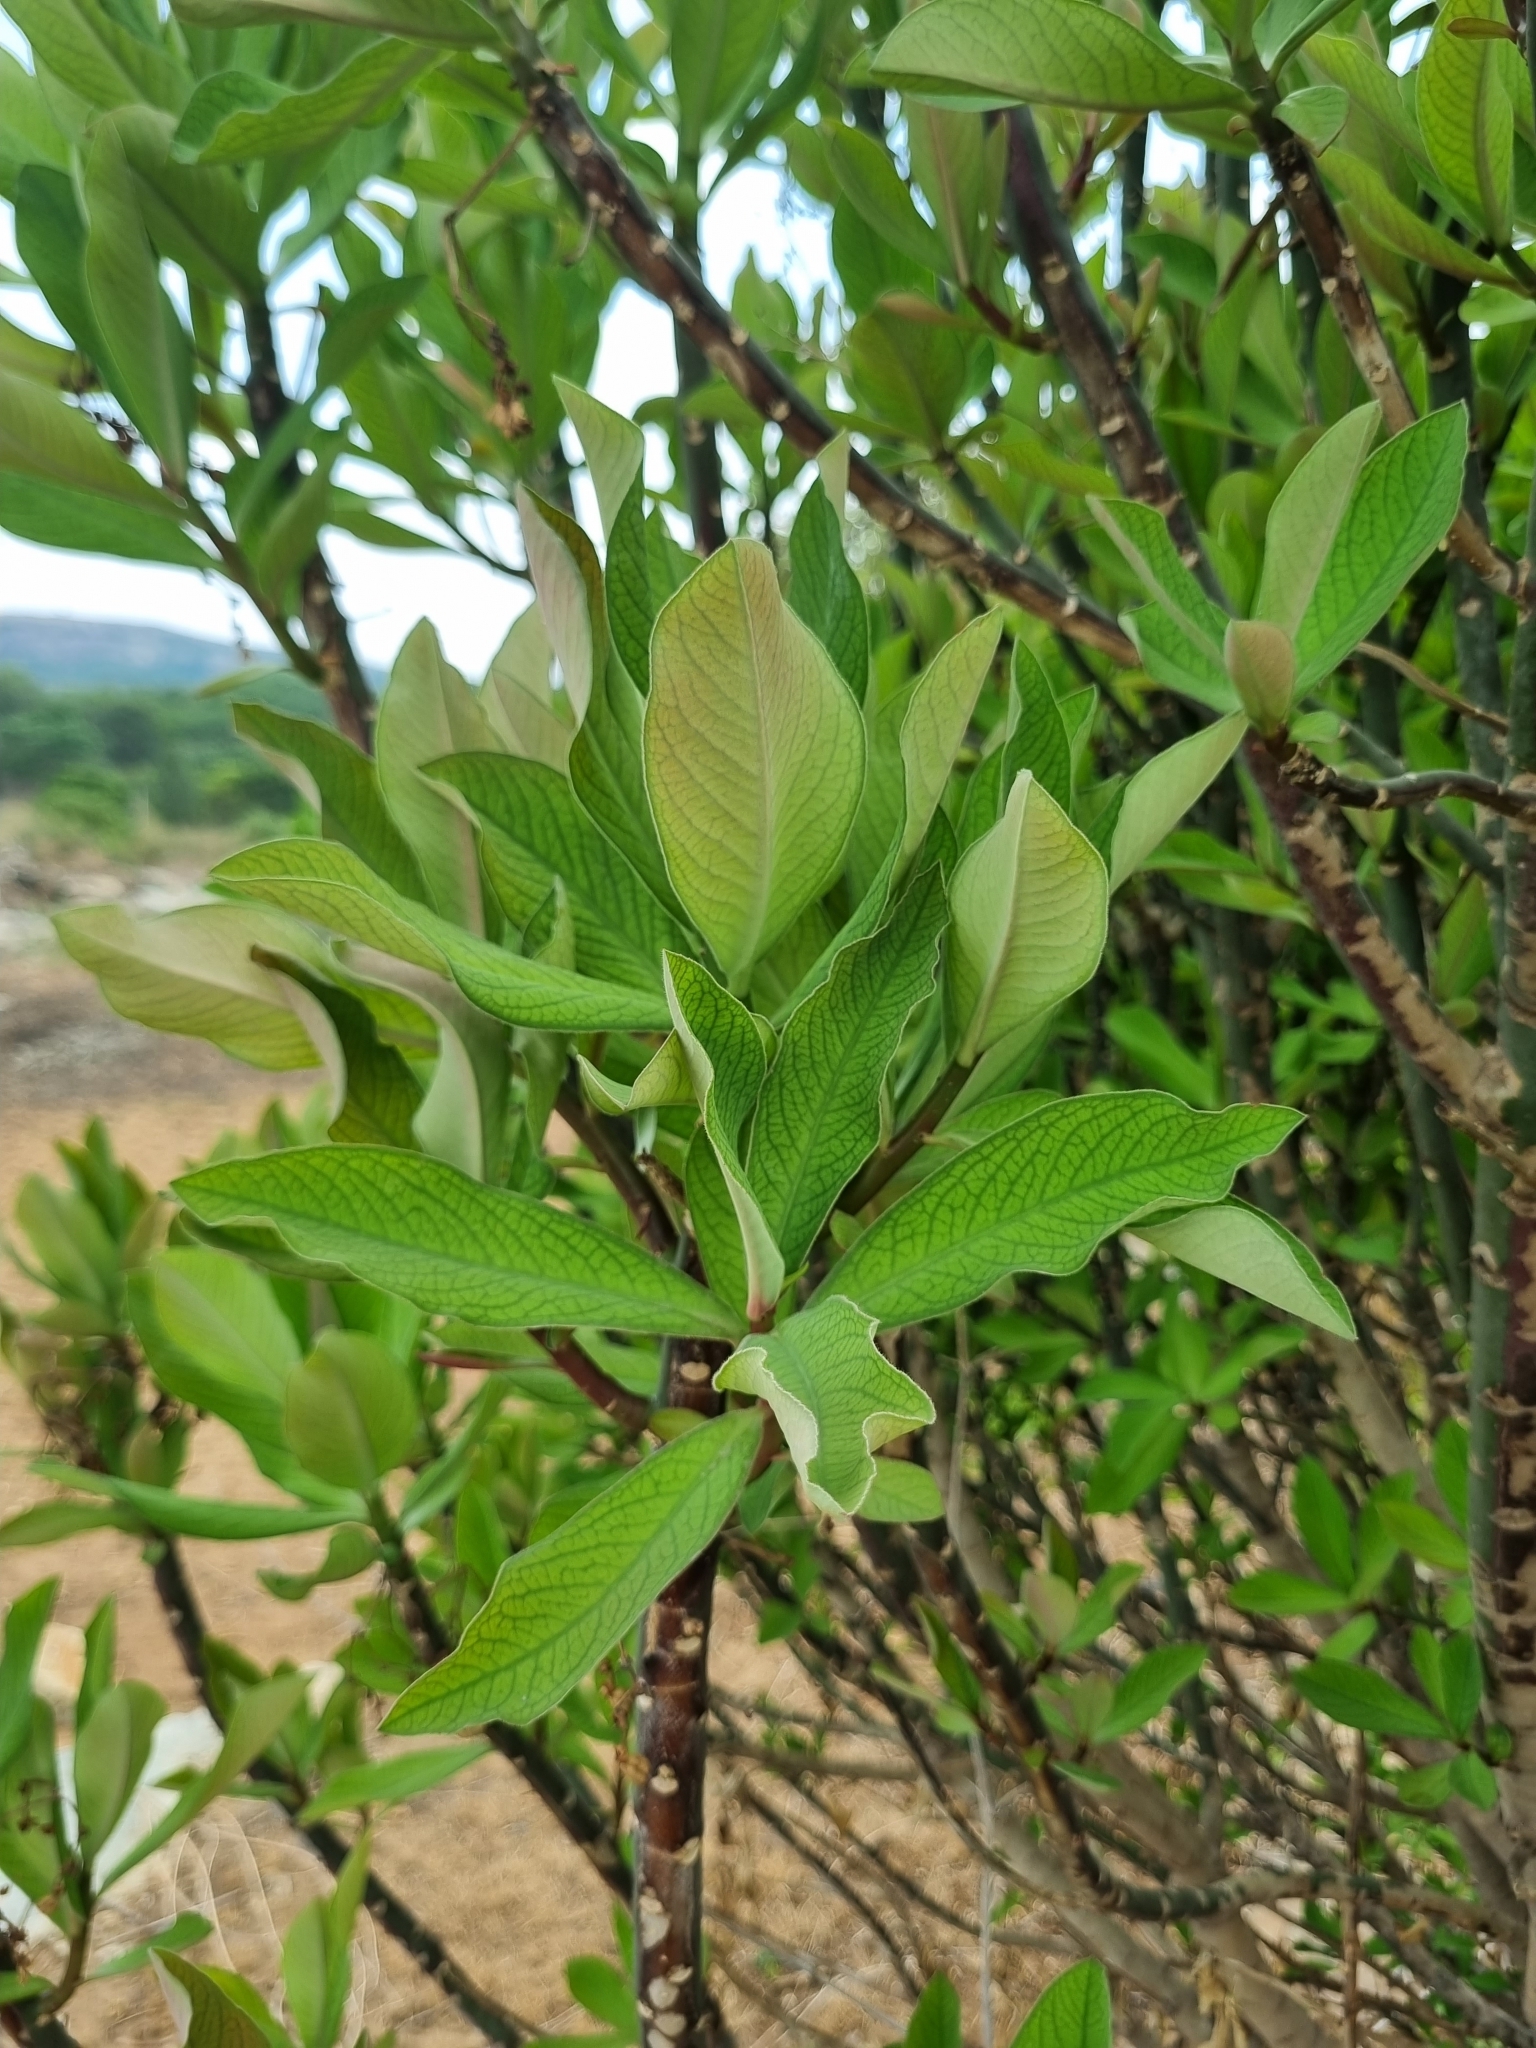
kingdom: Plantae
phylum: Tracheophyta
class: Magnoliopsida
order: Malpighiales
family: Euphorbiaceae
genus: Euphorbia
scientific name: Euphorbia umbellata
